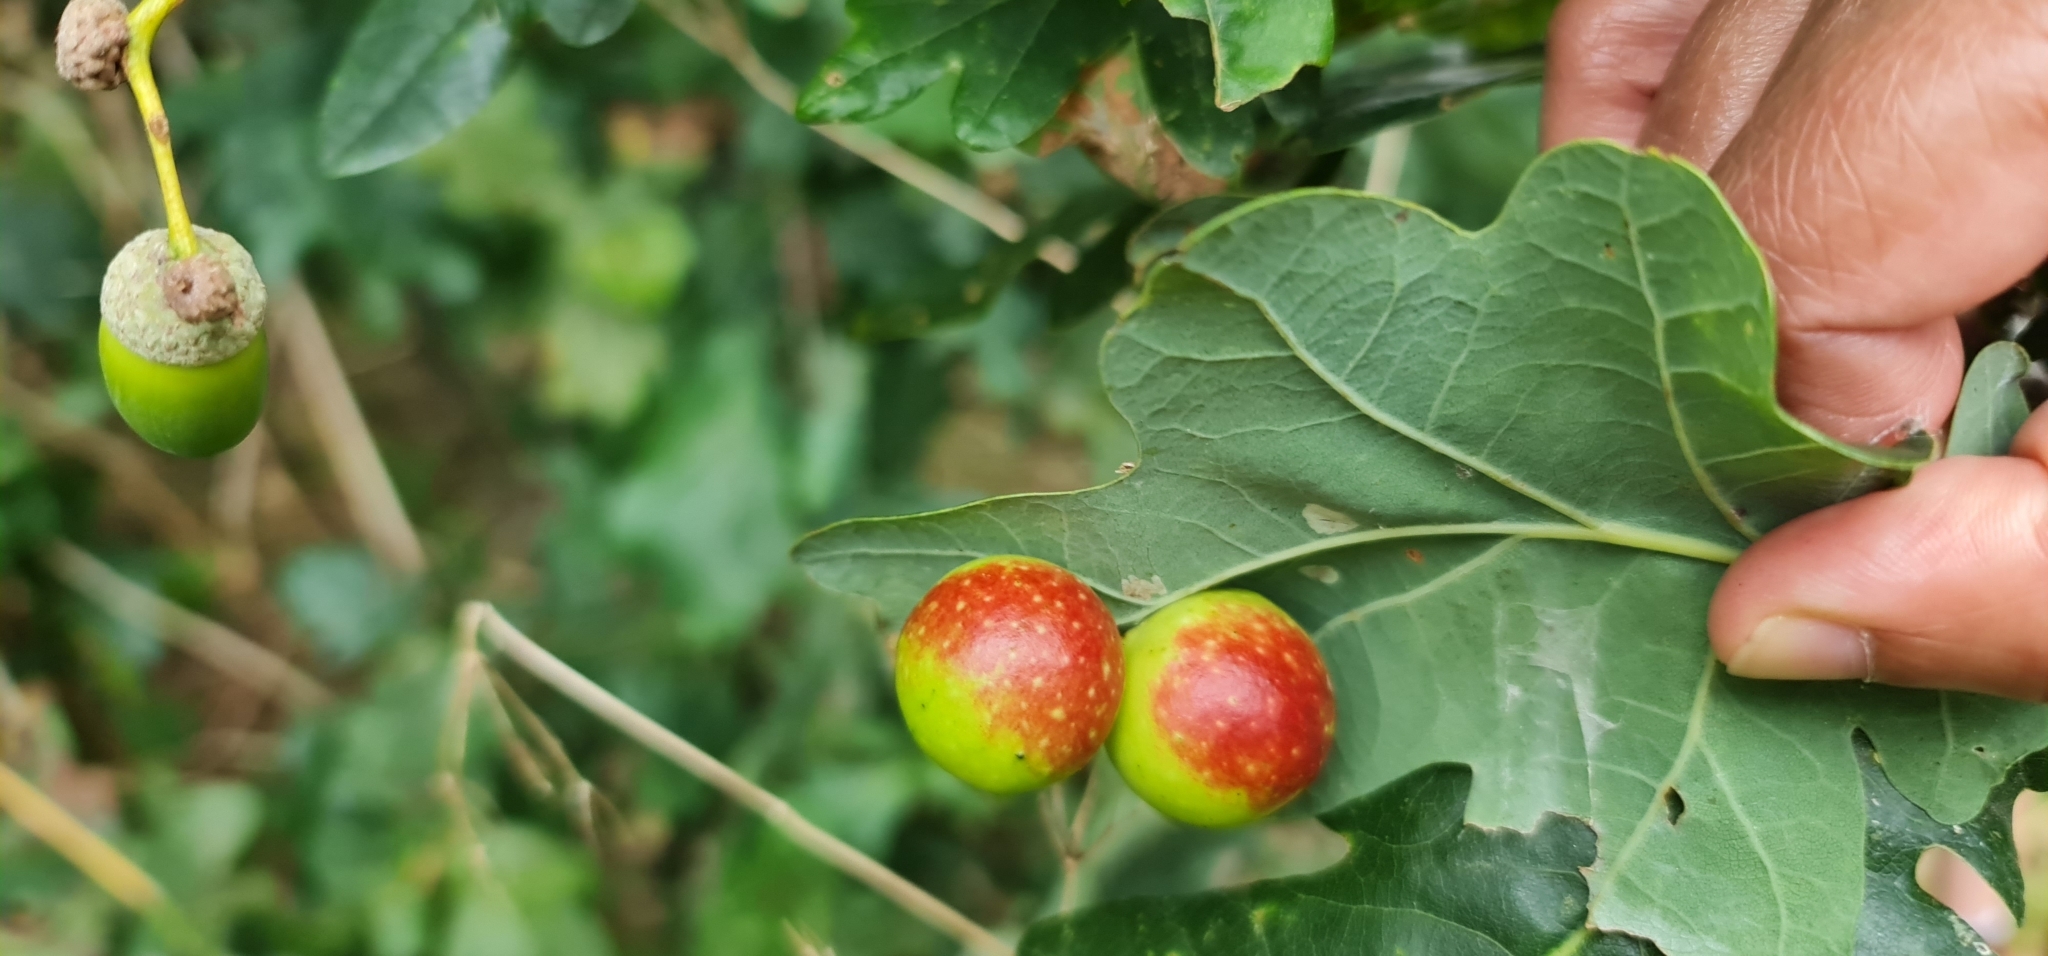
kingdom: Animalia
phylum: Arthropoda
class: Insecta
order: Hymenoptera
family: Cynipidae
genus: Cynips
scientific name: Cynips quercusfolii
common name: Cherry gall
